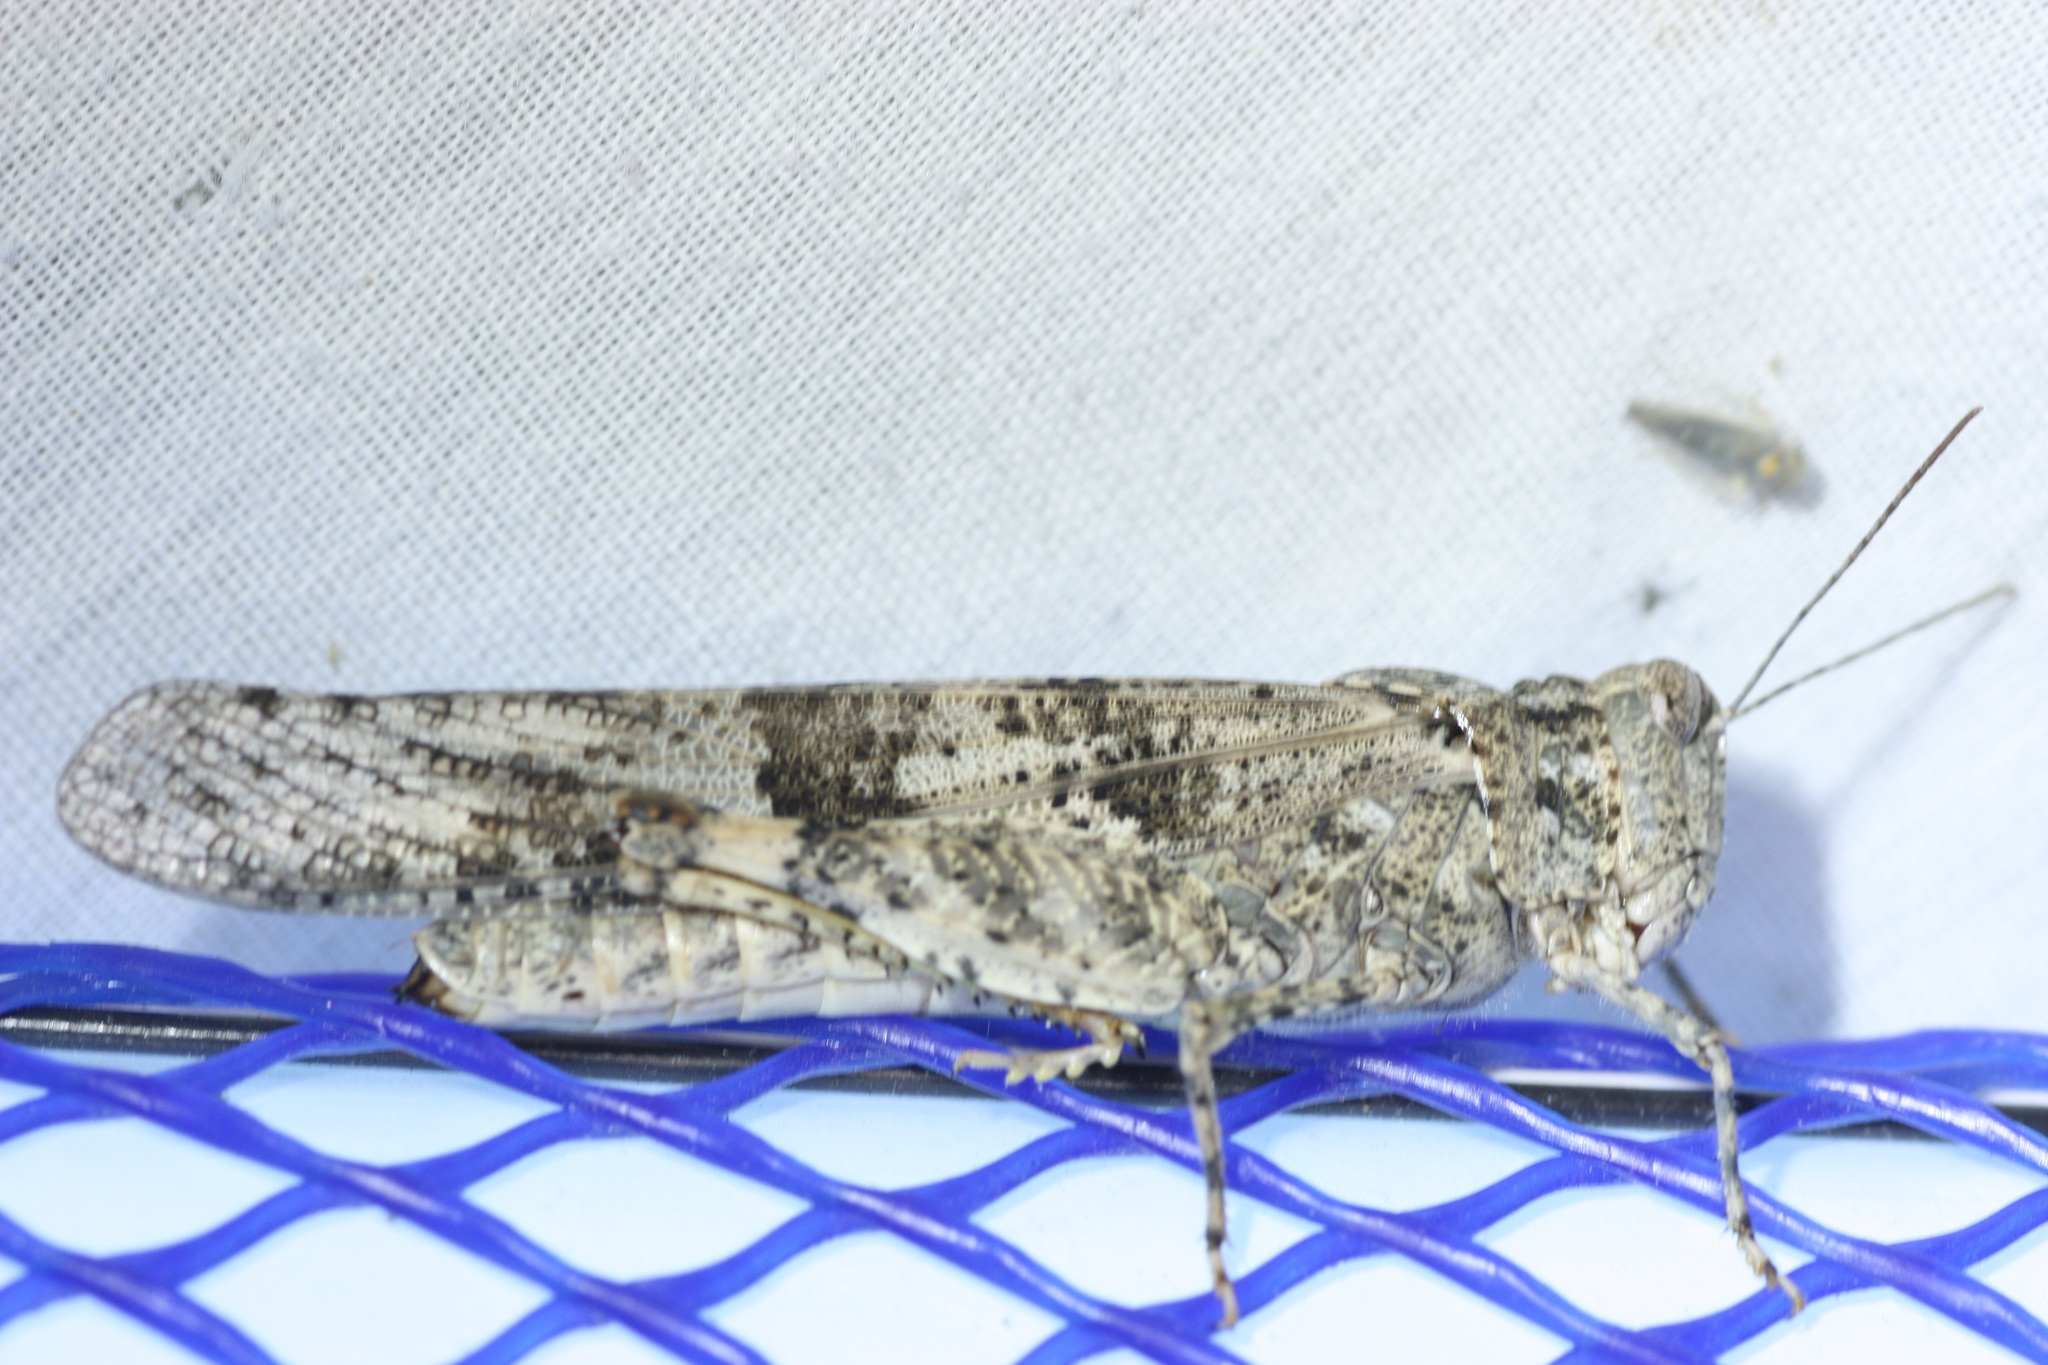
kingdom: Animalia
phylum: Arthropoda
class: Insecta
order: Orthoptera
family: Acrididae
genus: Trimerotropis
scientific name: Trimerotropis pallidipennis
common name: Pallid-winged grasshopper
